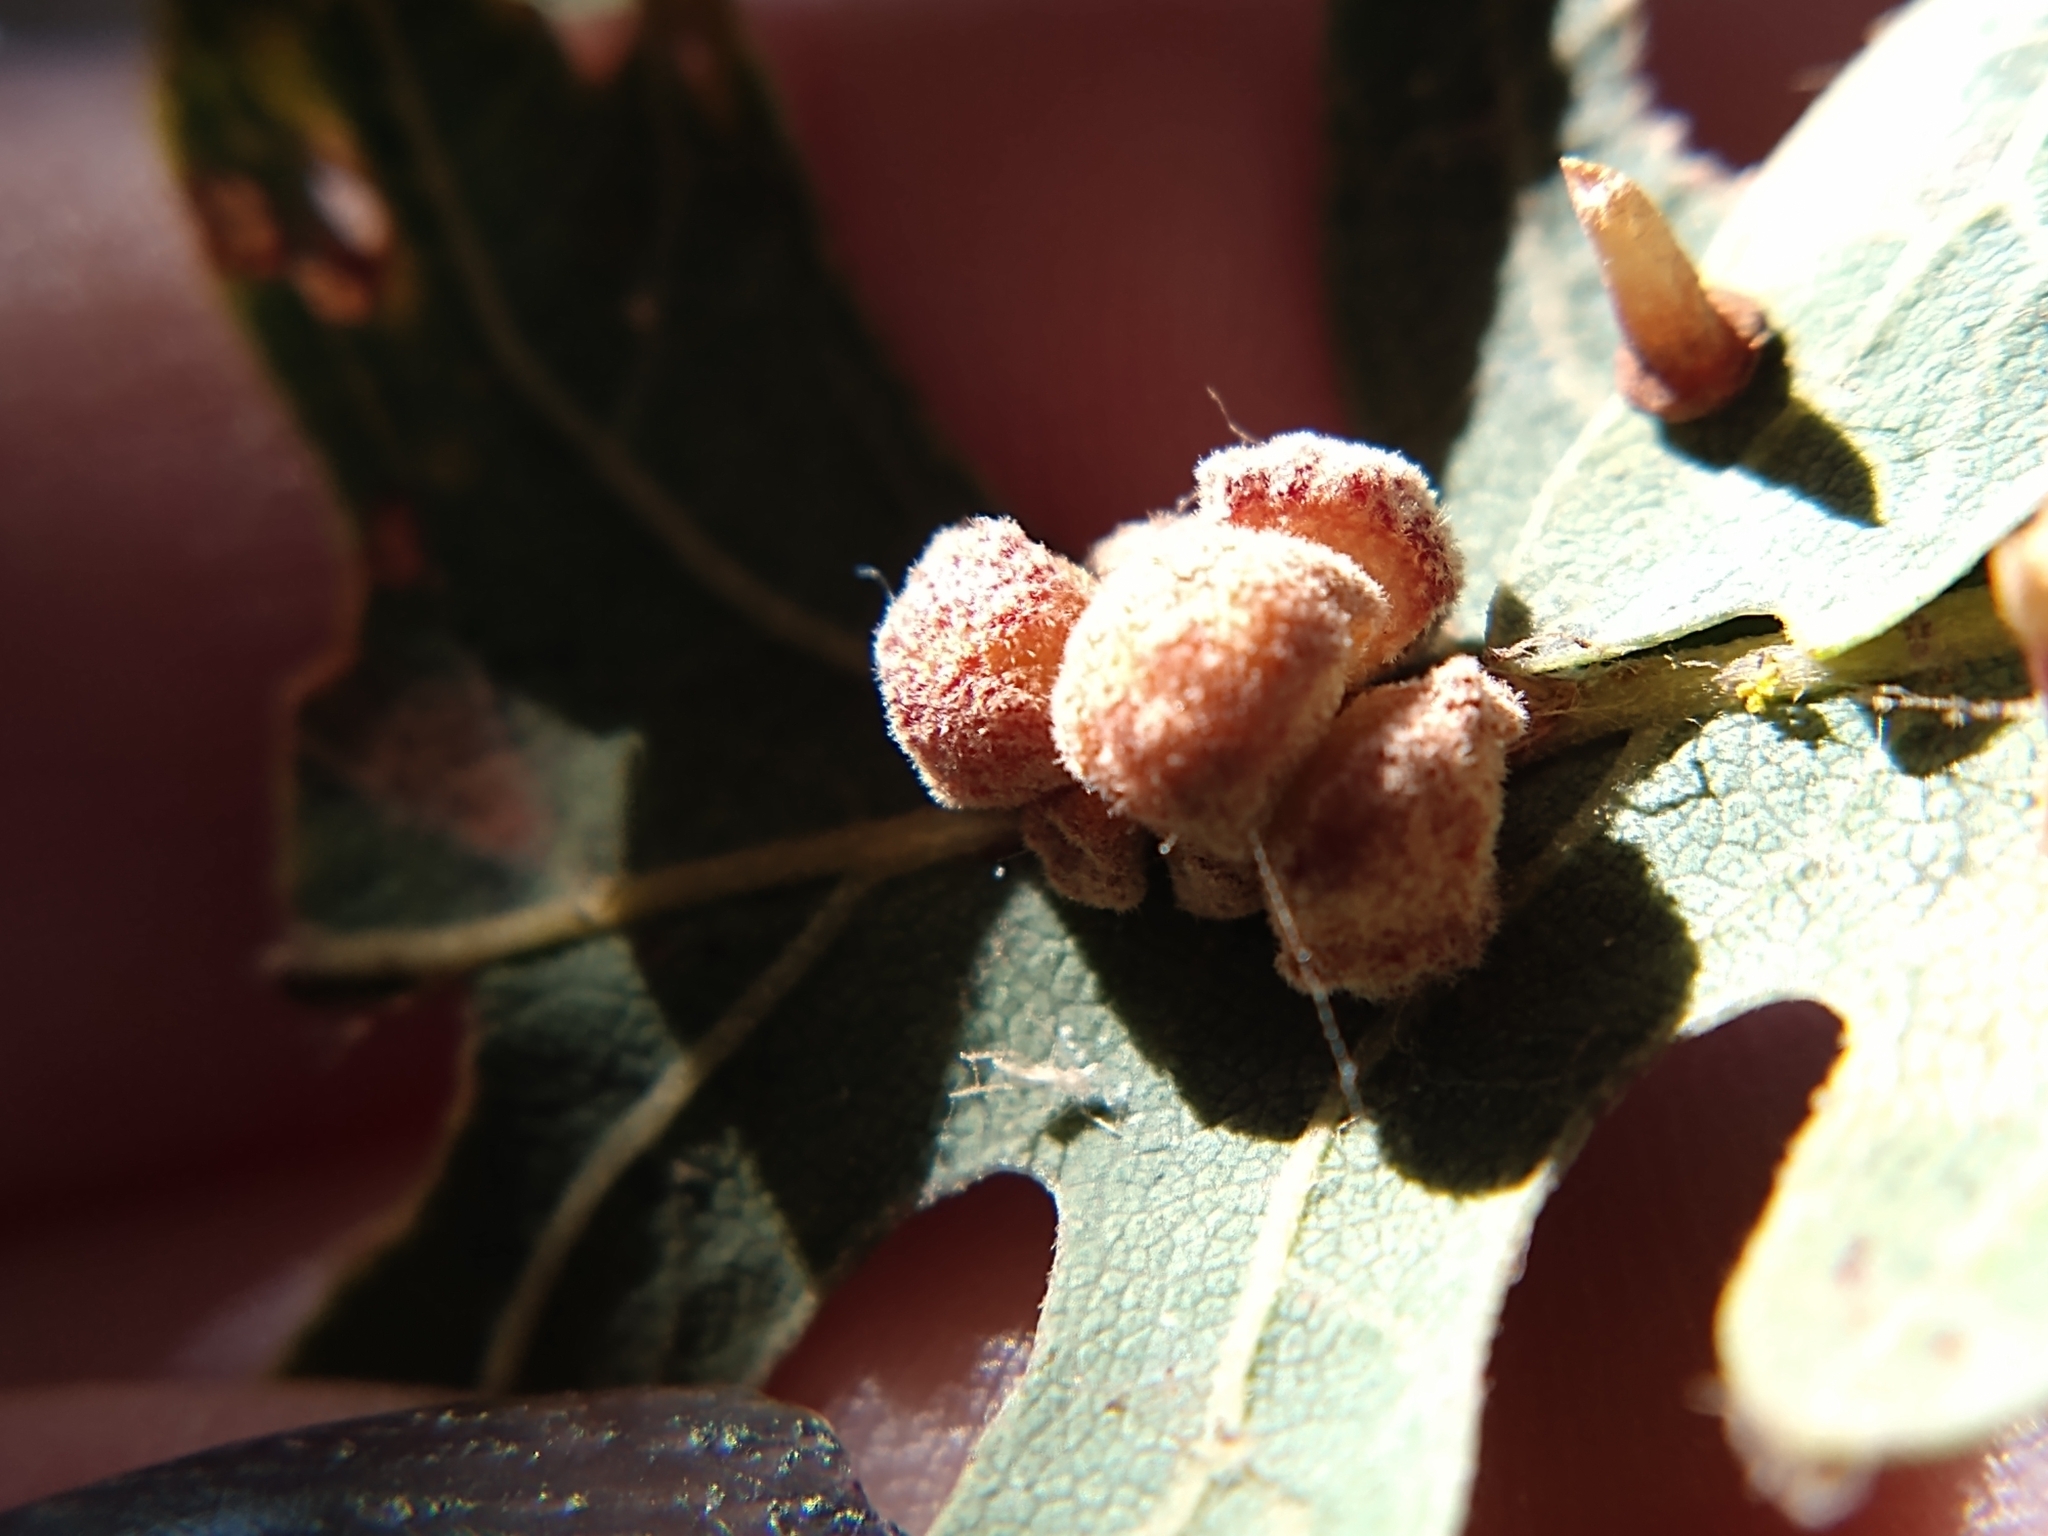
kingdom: Animalia
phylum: Arthropoda
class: Insecta
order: Hymenoptera
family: Cynipidae
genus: Andricus
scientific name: Andricus
